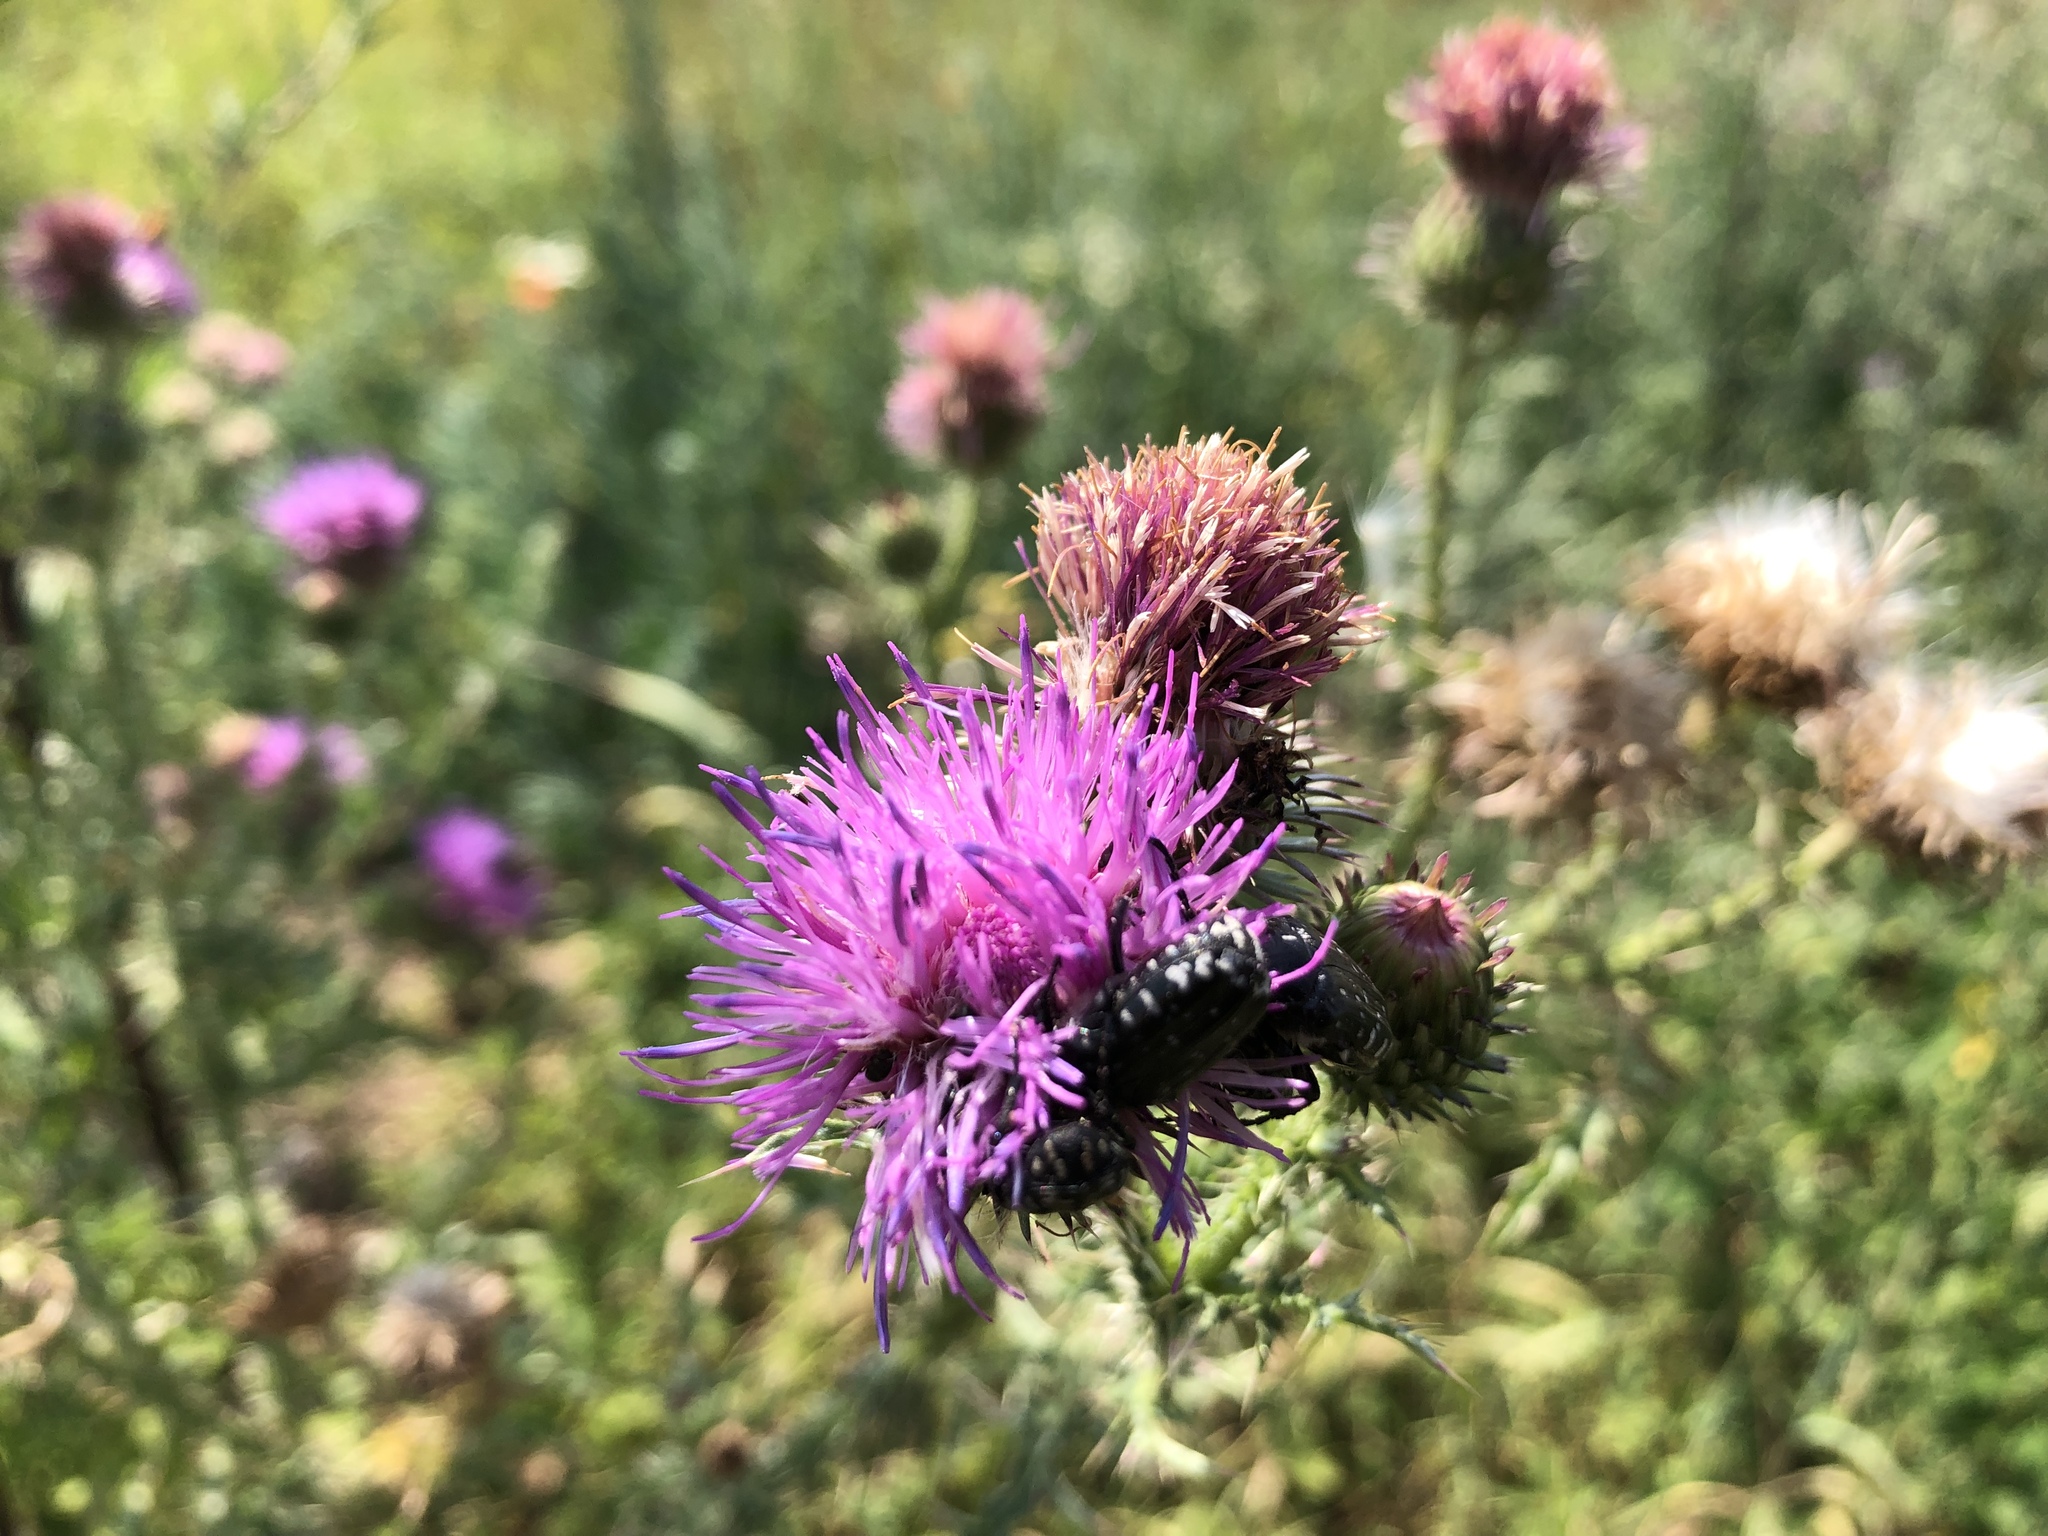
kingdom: Plantae
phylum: Tracheophyta
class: Magnoliopsida
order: Asterales
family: Asteraceae
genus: Carduus
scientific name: Carduus acanthoides
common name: Plumeless thistle
